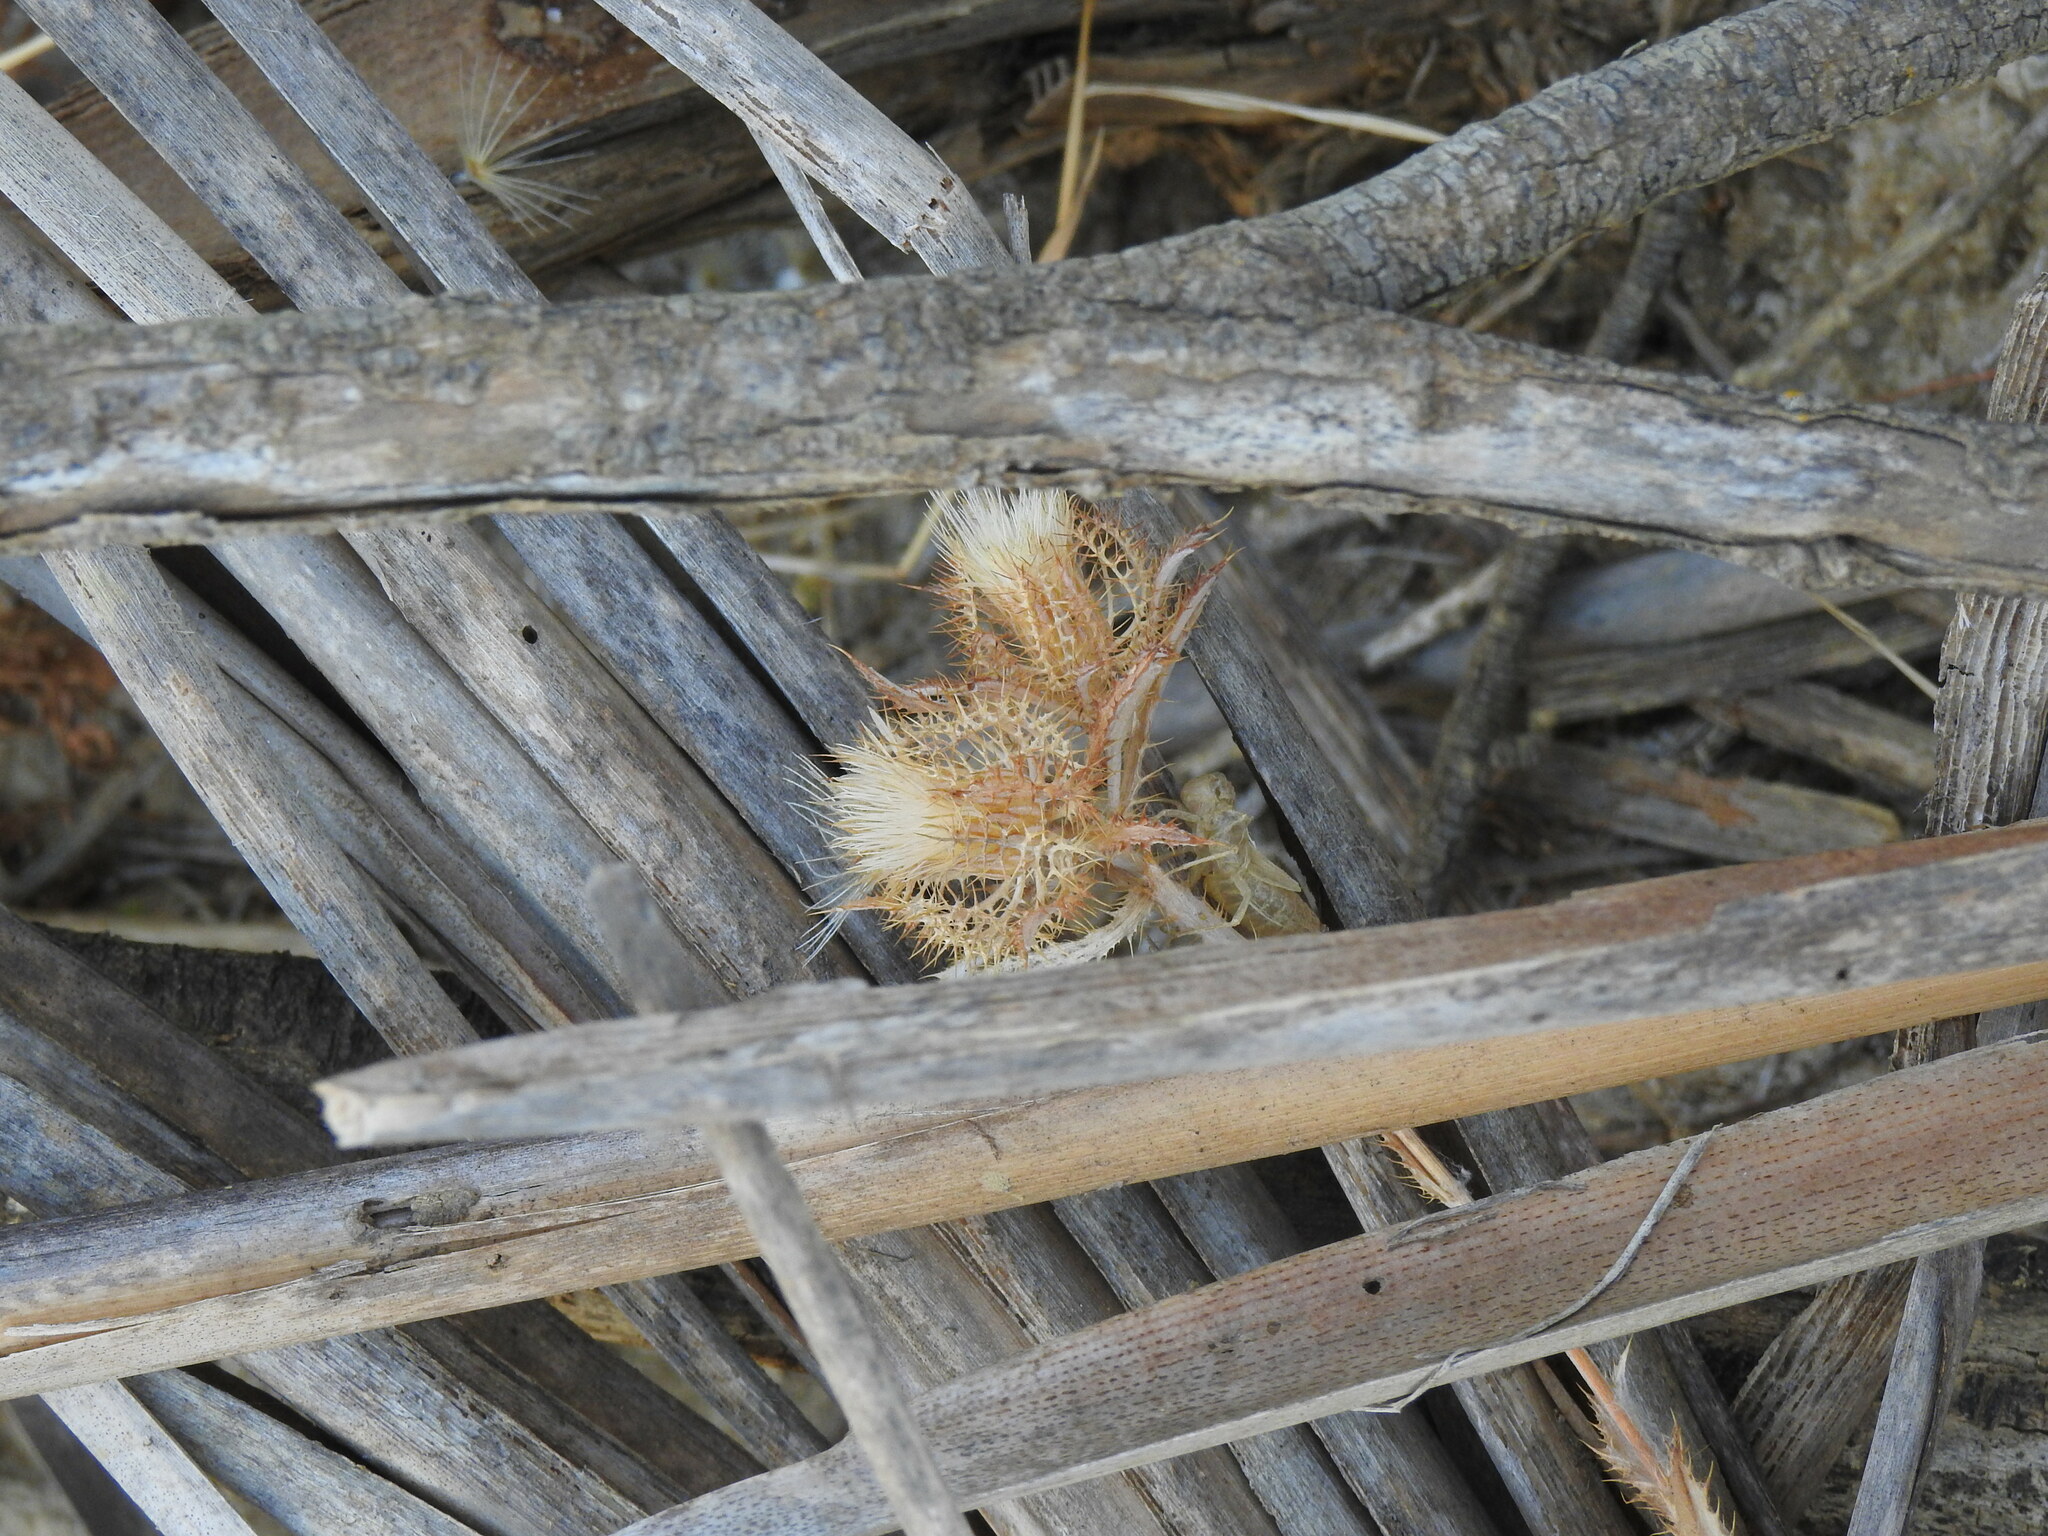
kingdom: Plantae
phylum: Tracheophyta
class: Magnoliopsida
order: Asterales
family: Asteraceae
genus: Atractylis
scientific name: Atractylis cancellata
